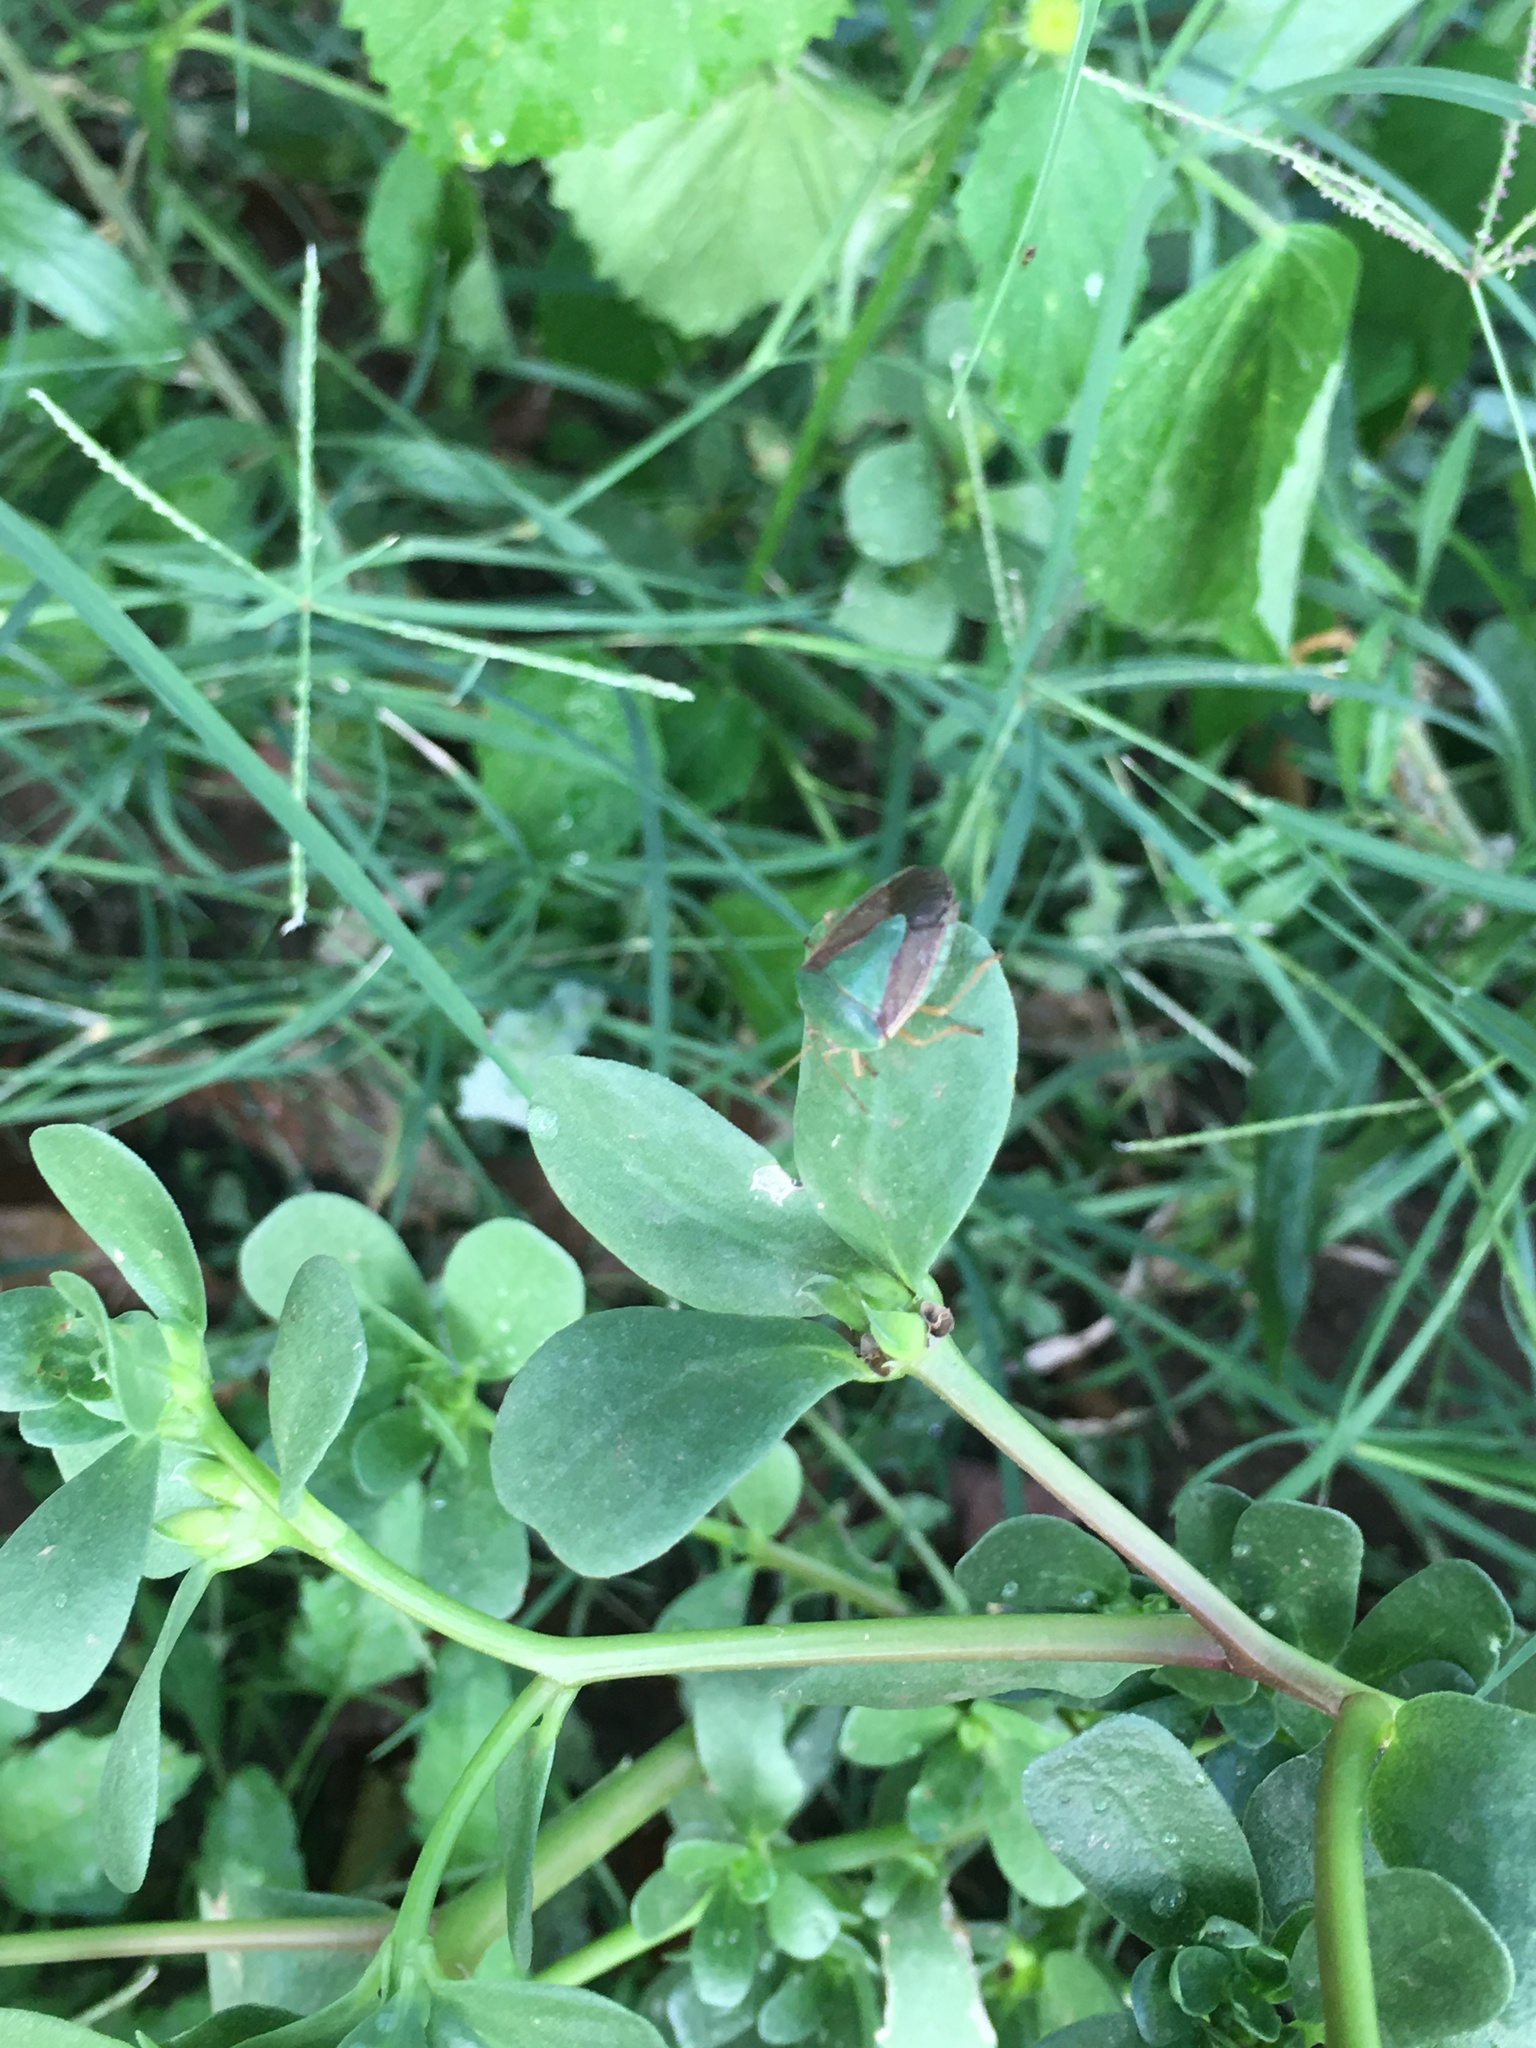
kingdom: Animalia
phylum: Arthropoda
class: Insecta
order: Hemiptera
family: Pentatomidae
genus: Edessa
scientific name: Edessa meditabunda
